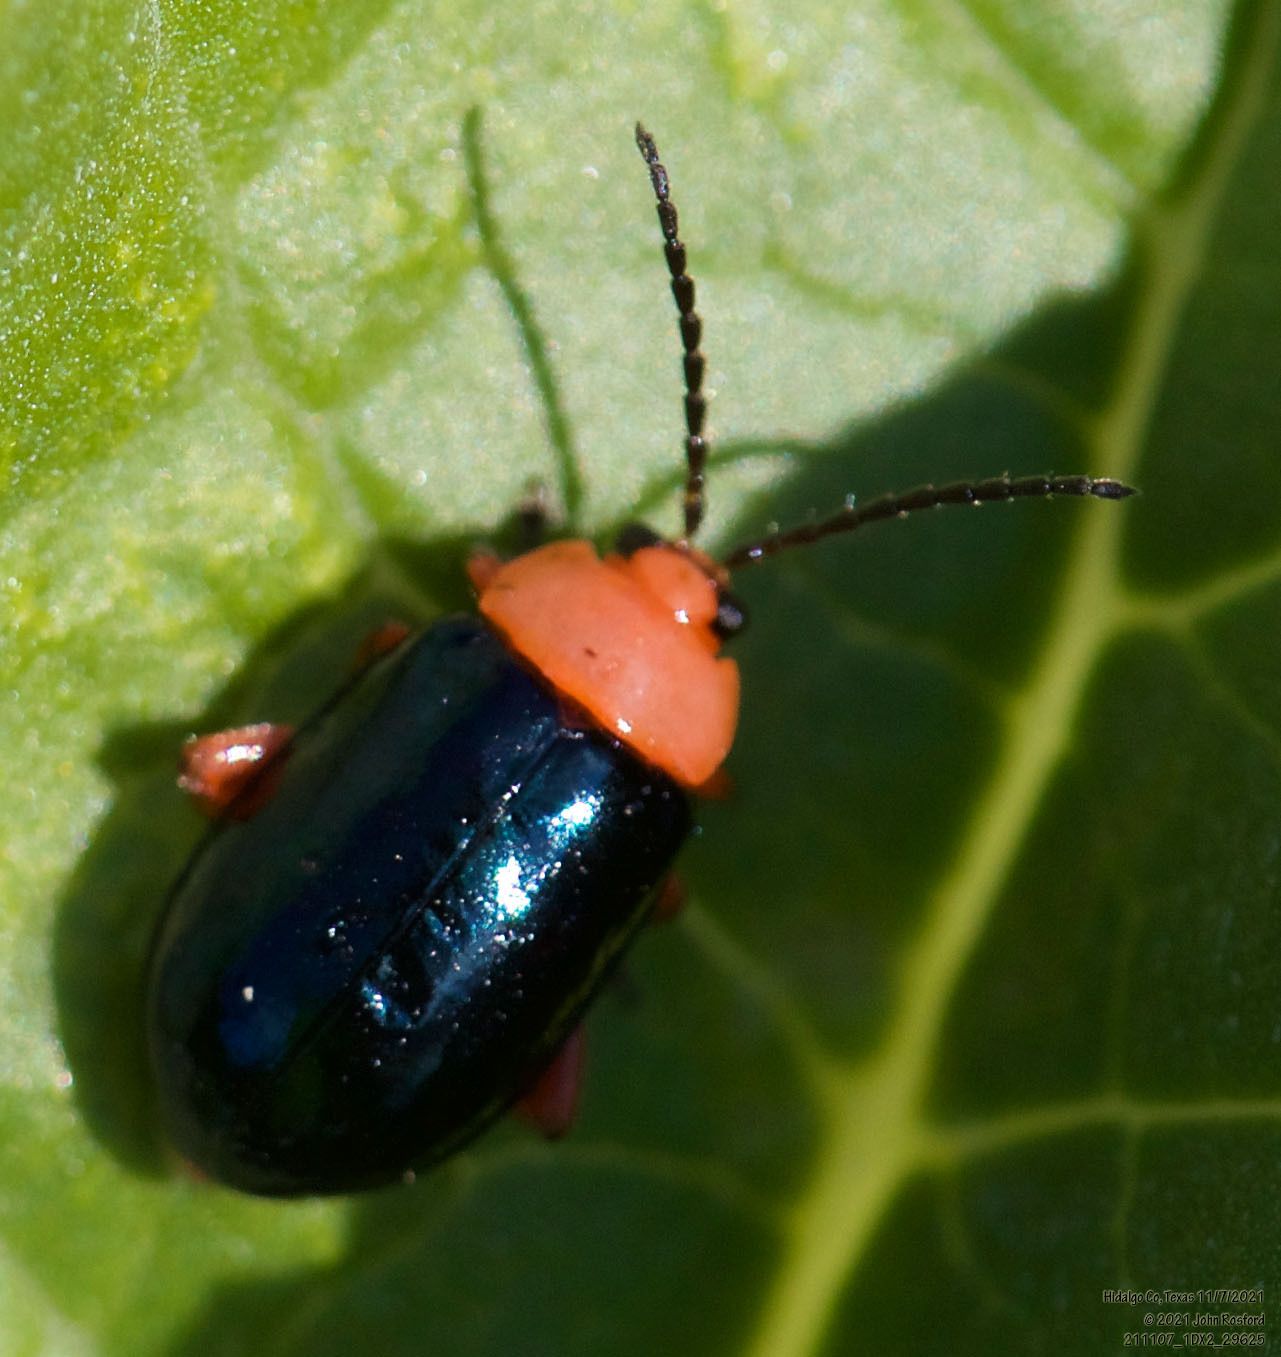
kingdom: Animalia
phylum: Arthropoda
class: Insecta
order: Coleoptera
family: Chrysomelidae
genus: Asphaera
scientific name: Asphaera lustrans
